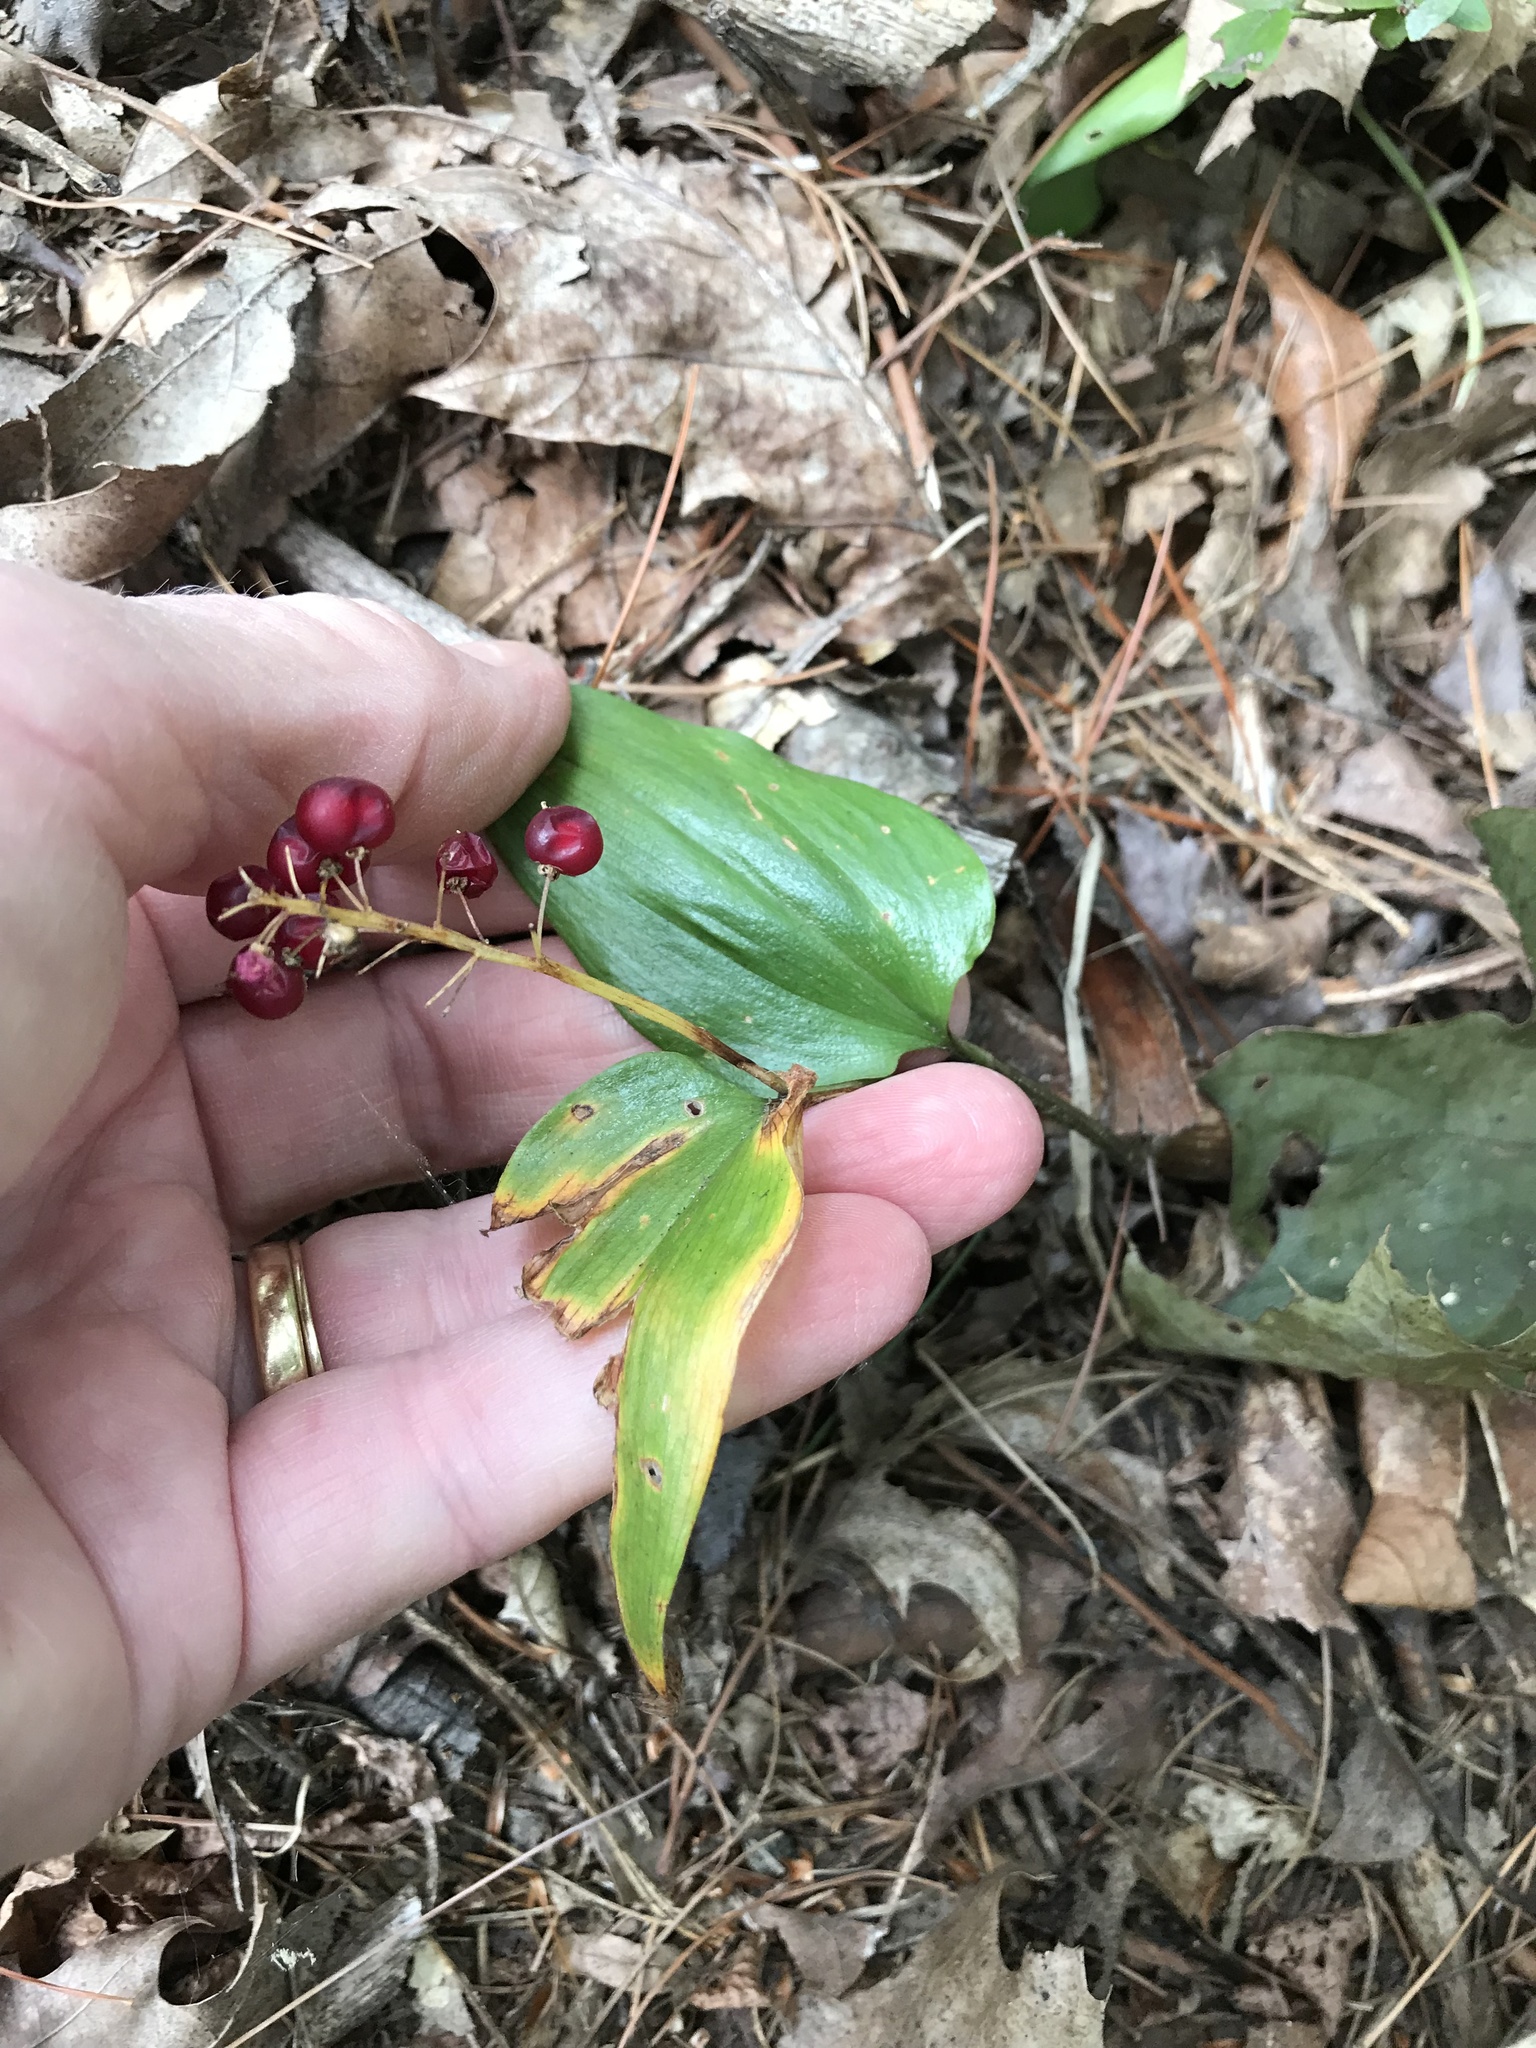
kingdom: Plantae
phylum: Tracheophyta
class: Liliopsida
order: Asparagales
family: Asparagaceae
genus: Maianthemum
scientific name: Maianthemum canadense
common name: False lily-of-the-valley
